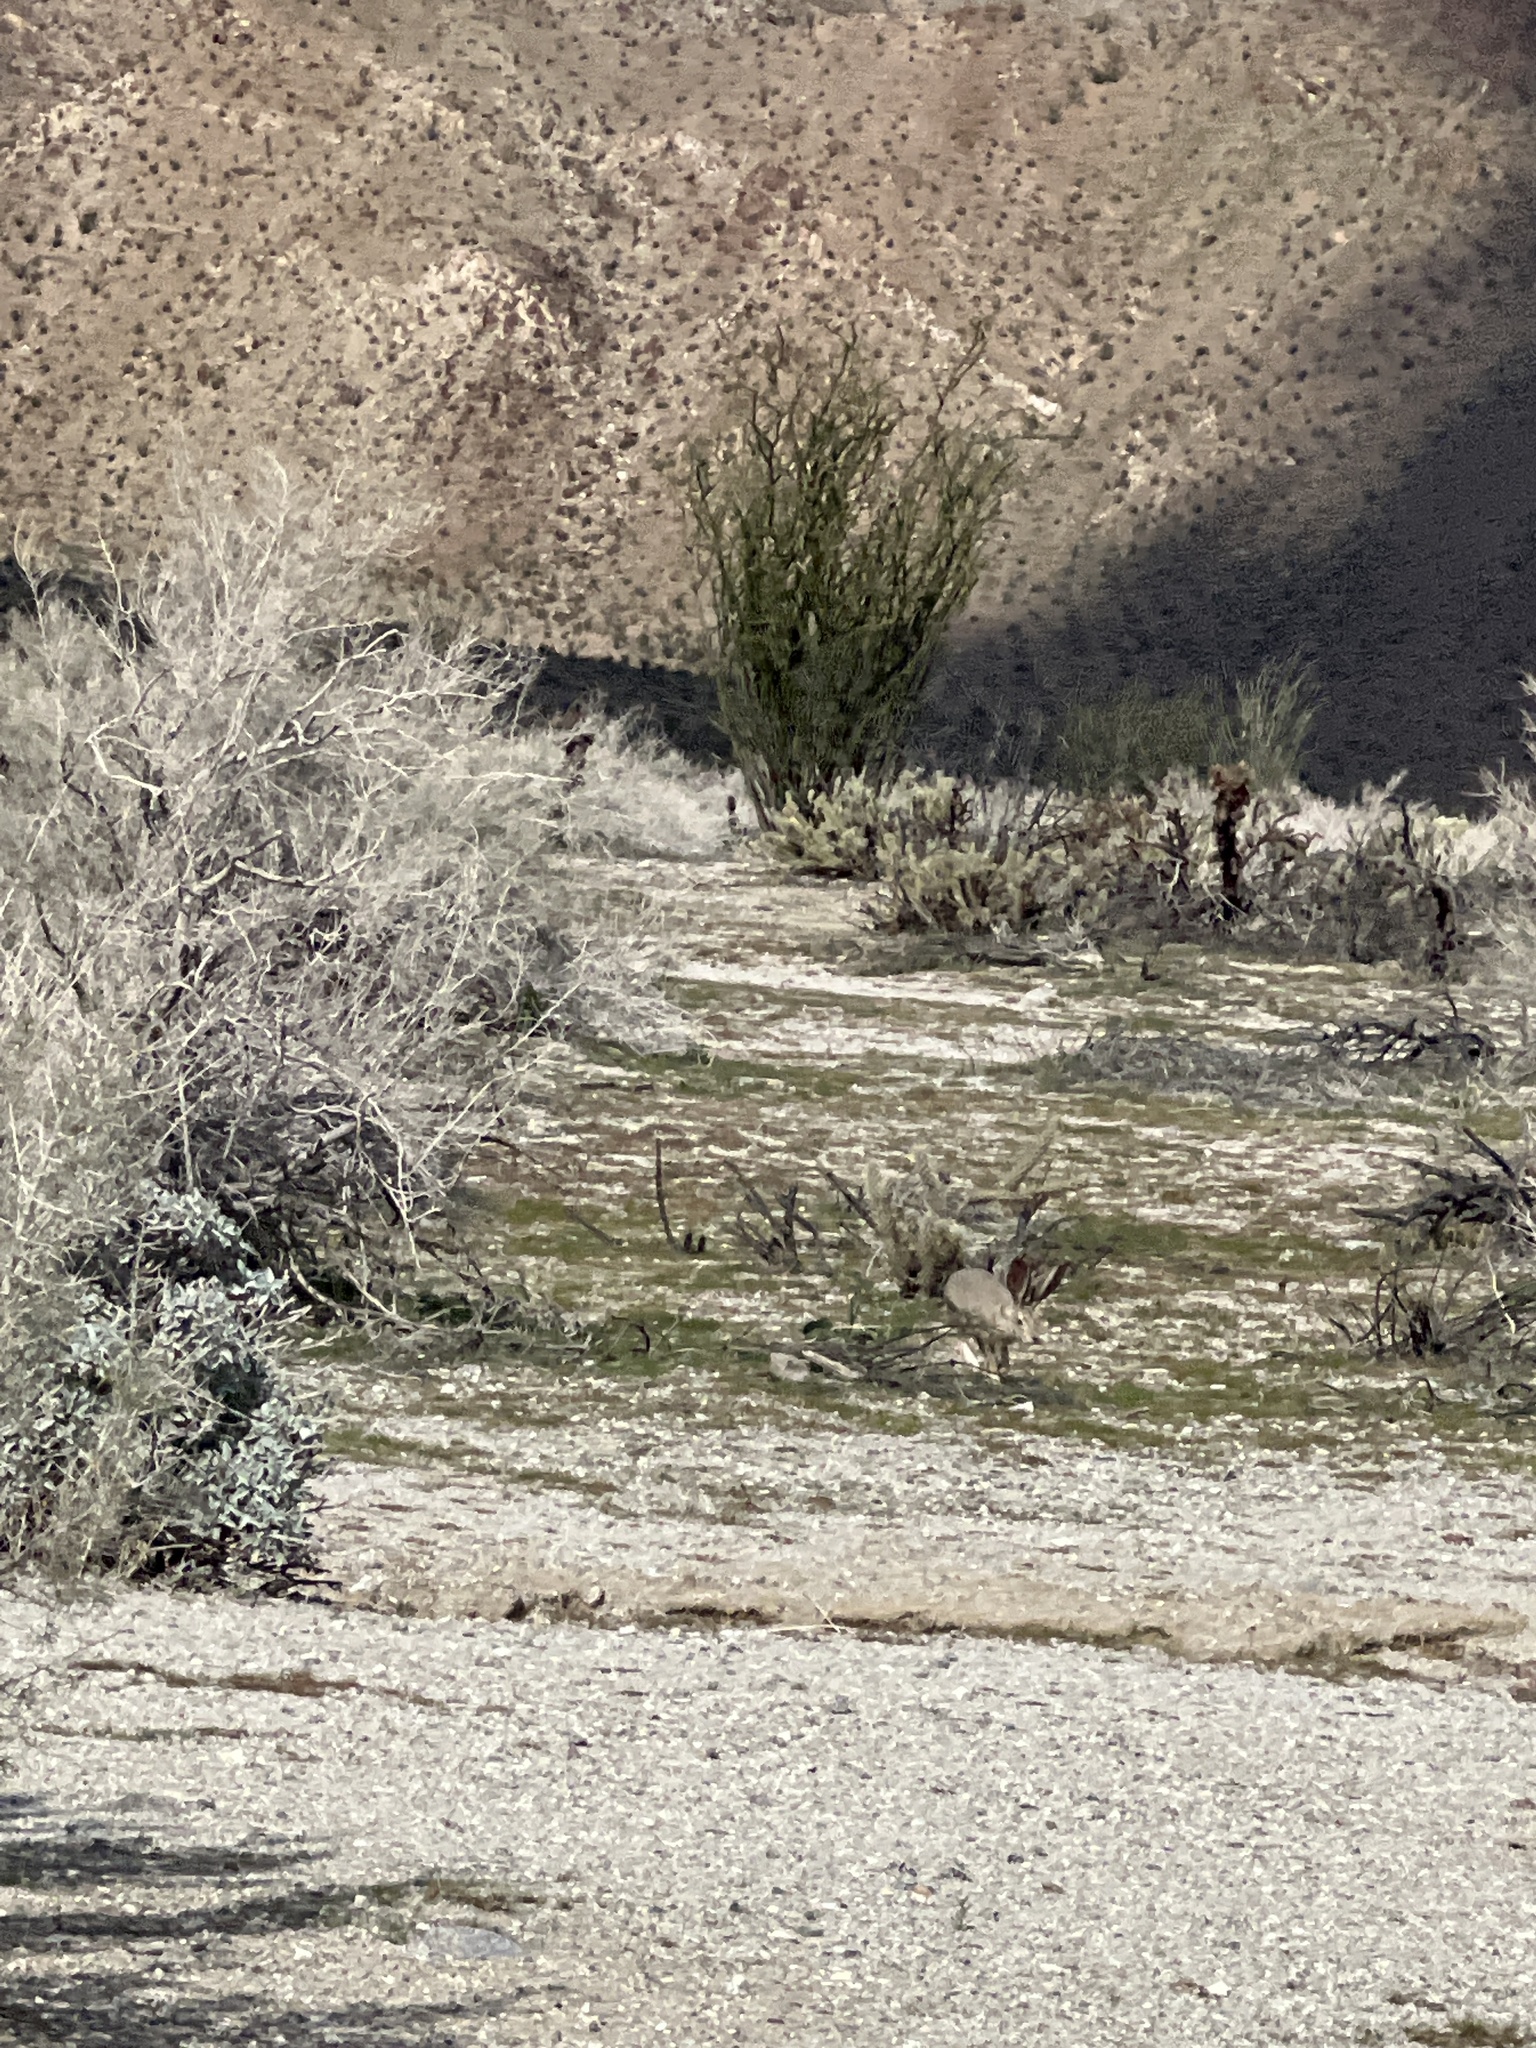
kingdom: Animalia
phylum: Chordata
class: Mammalia
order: Lagomorpha
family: Leporidae
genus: Lepus
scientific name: Lepus californicus
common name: Black-tailed jackrabbit
